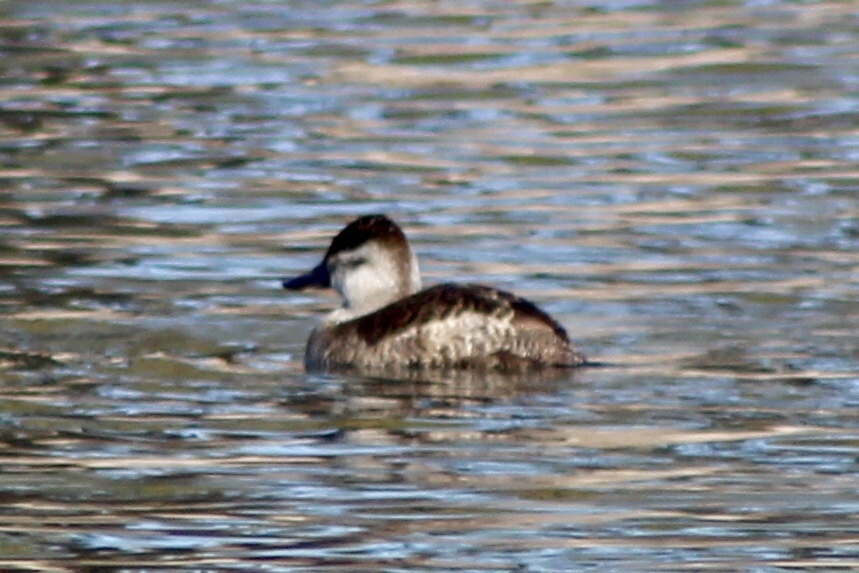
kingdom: Animalia
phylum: Chordata
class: Aves
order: Anseriformes
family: Anatidae
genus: Oxyura
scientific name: Oxyura jamaicensis
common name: Ruddy duck
